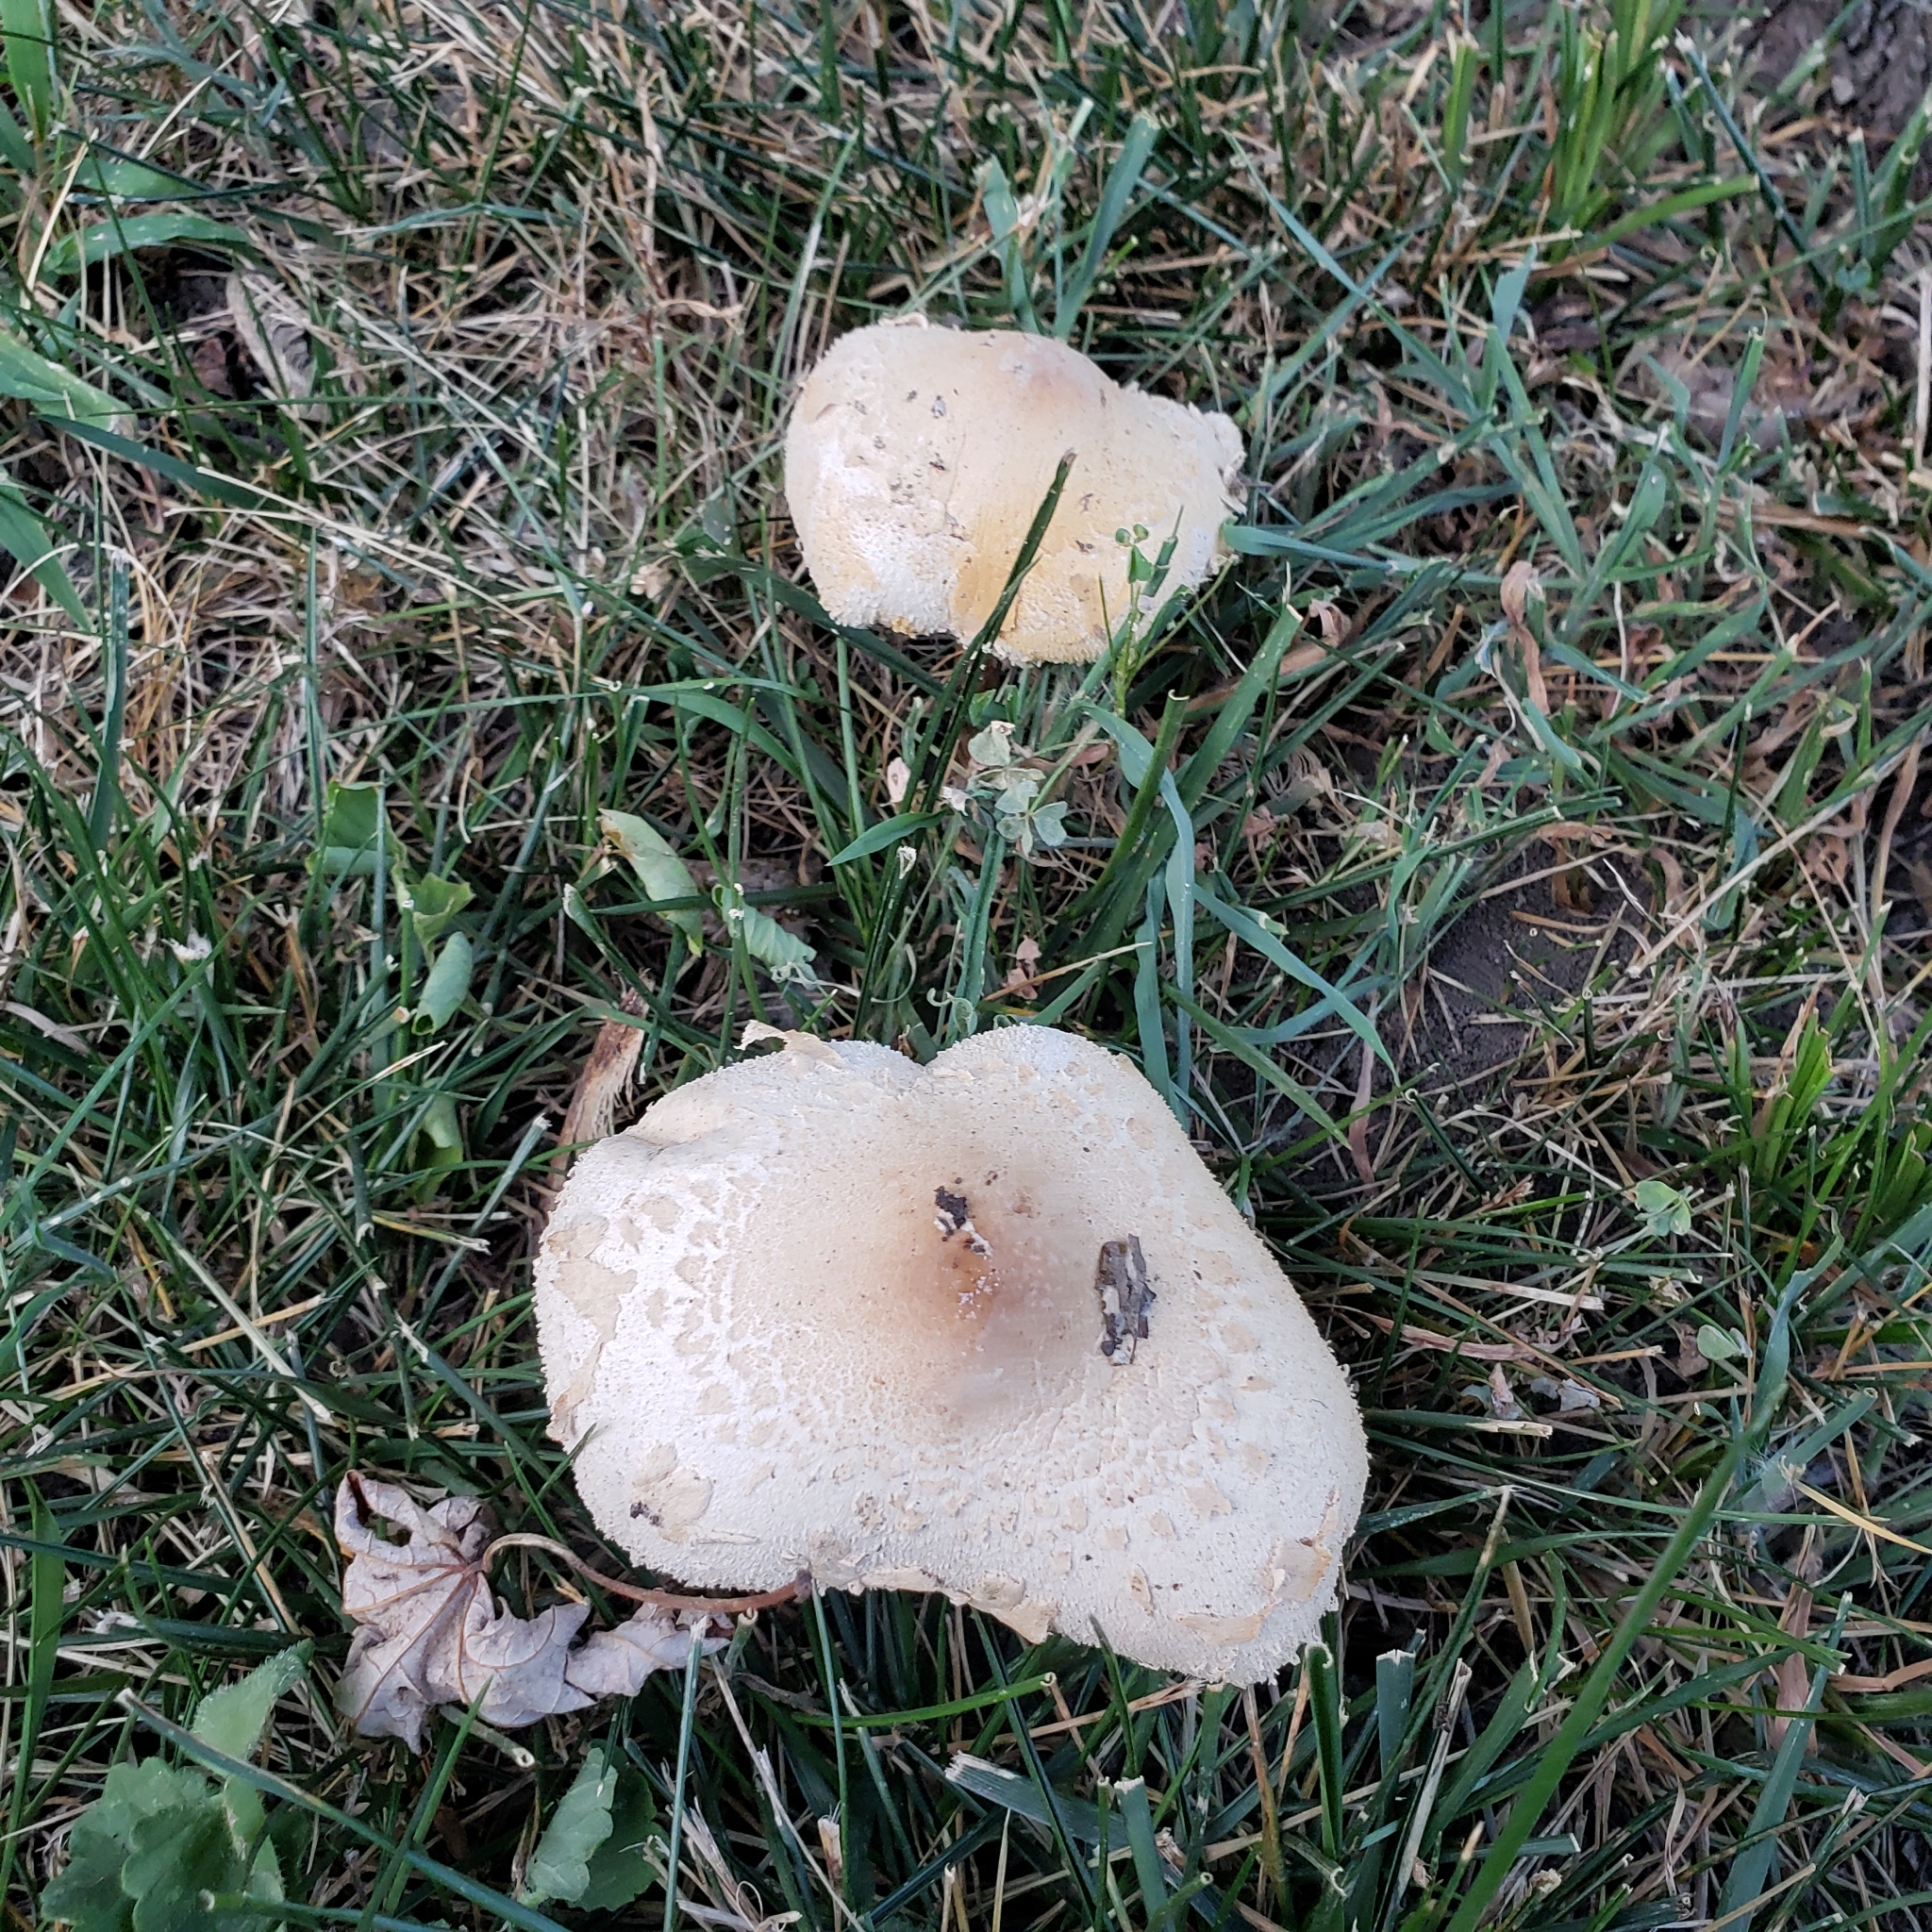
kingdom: Fungi
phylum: Basidiomycota
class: Agaricomycetes
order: Agaricales
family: Agaricaceae
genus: Chlorophyllum
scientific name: Chlorophyllum molybdites
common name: False parasol
